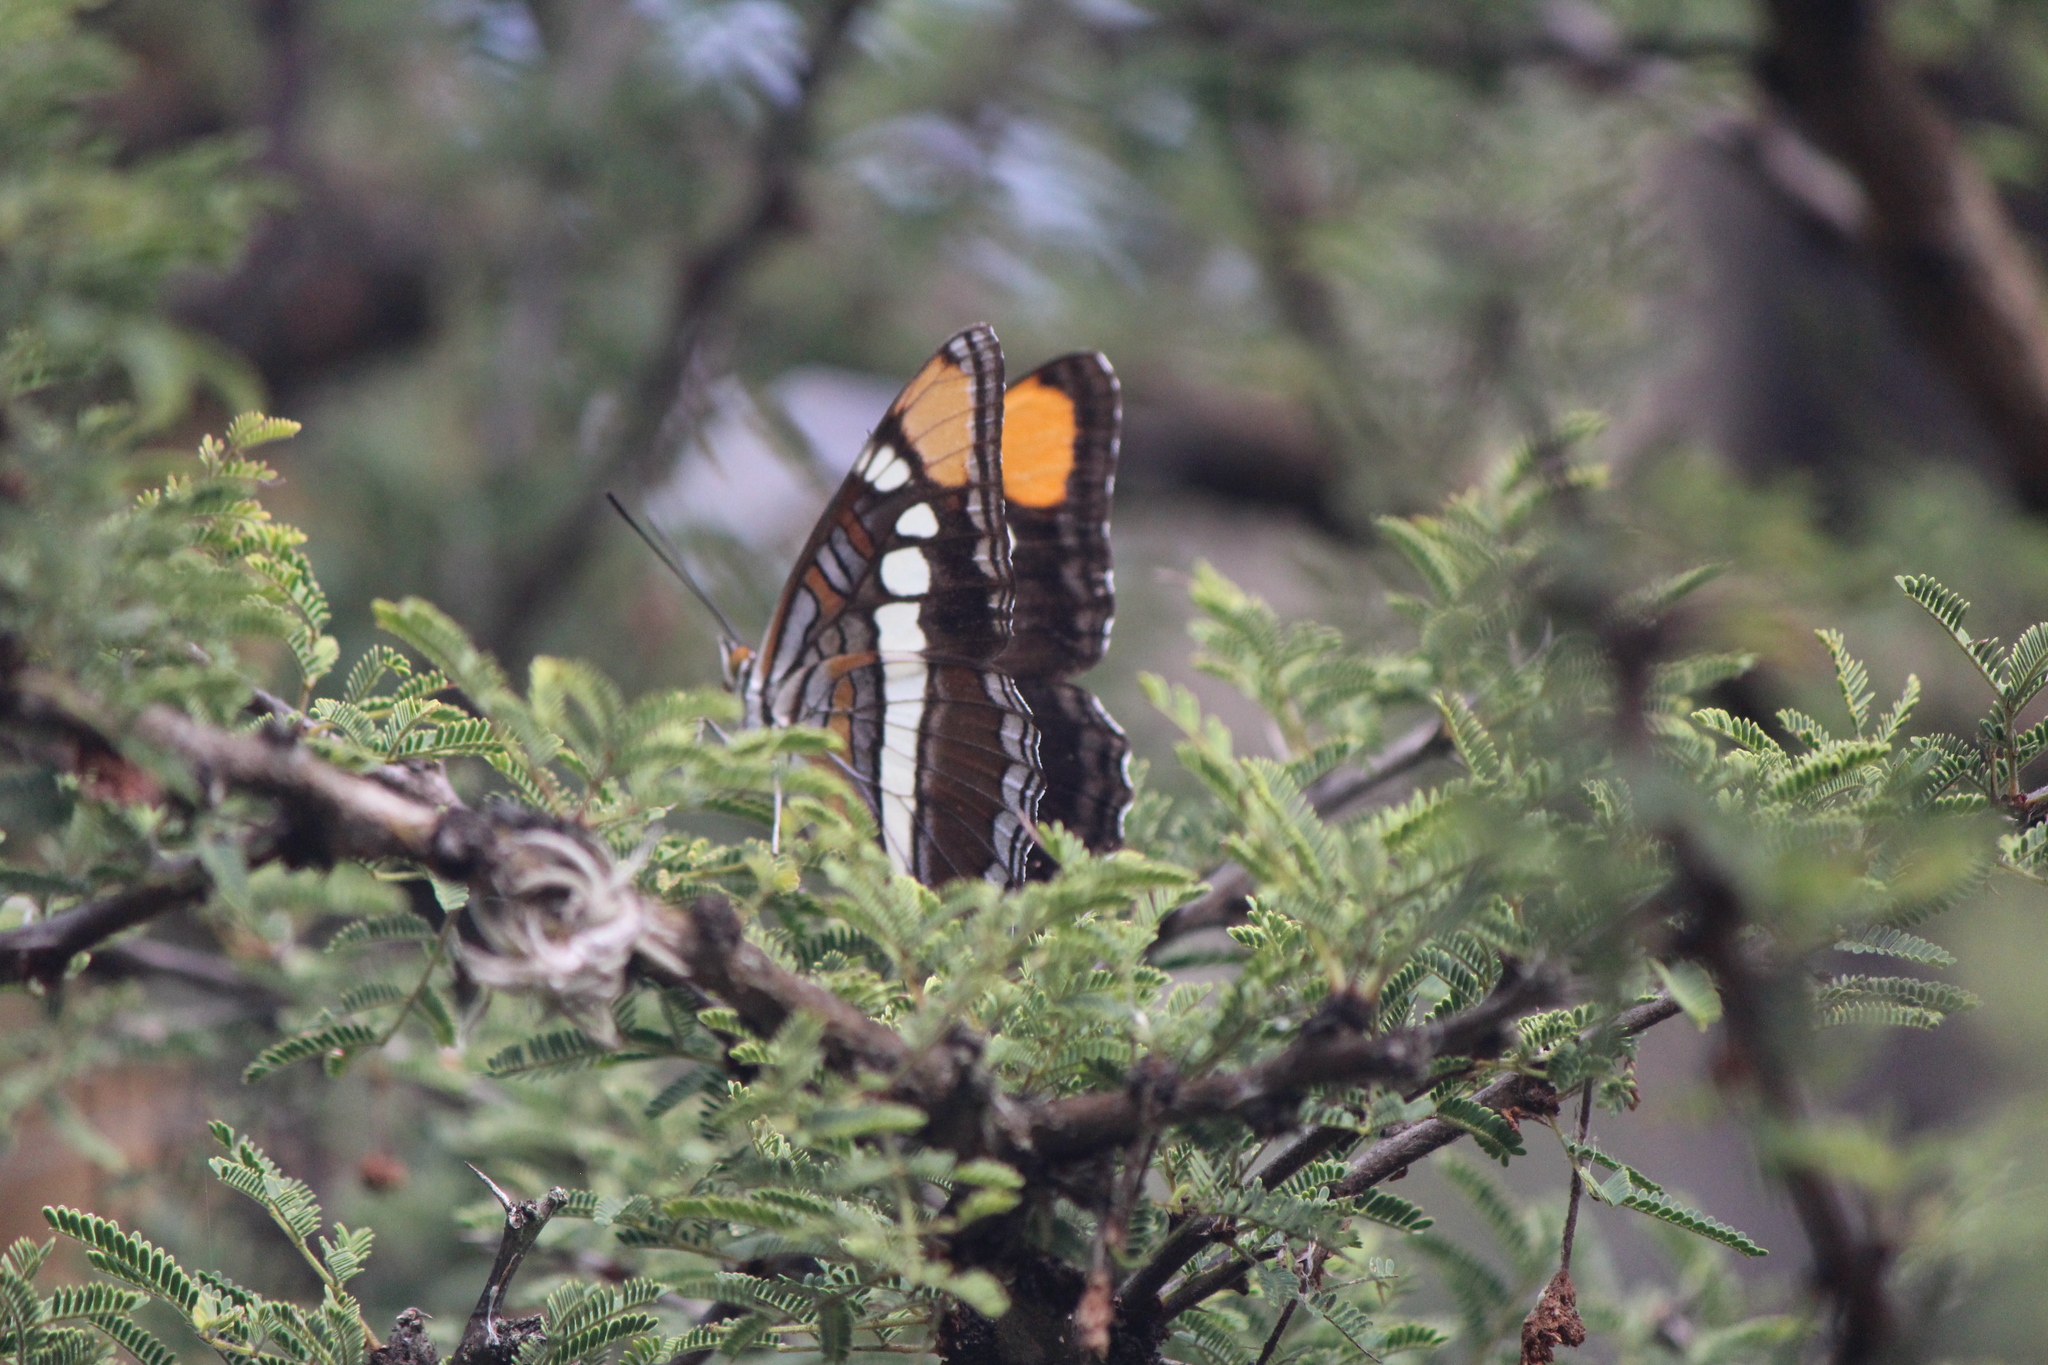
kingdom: Animalia
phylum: Arthropoda
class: Insecta
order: Lepidoptera
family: Nymphalidae
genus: Limenitis
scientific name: Limenitis bredowii
